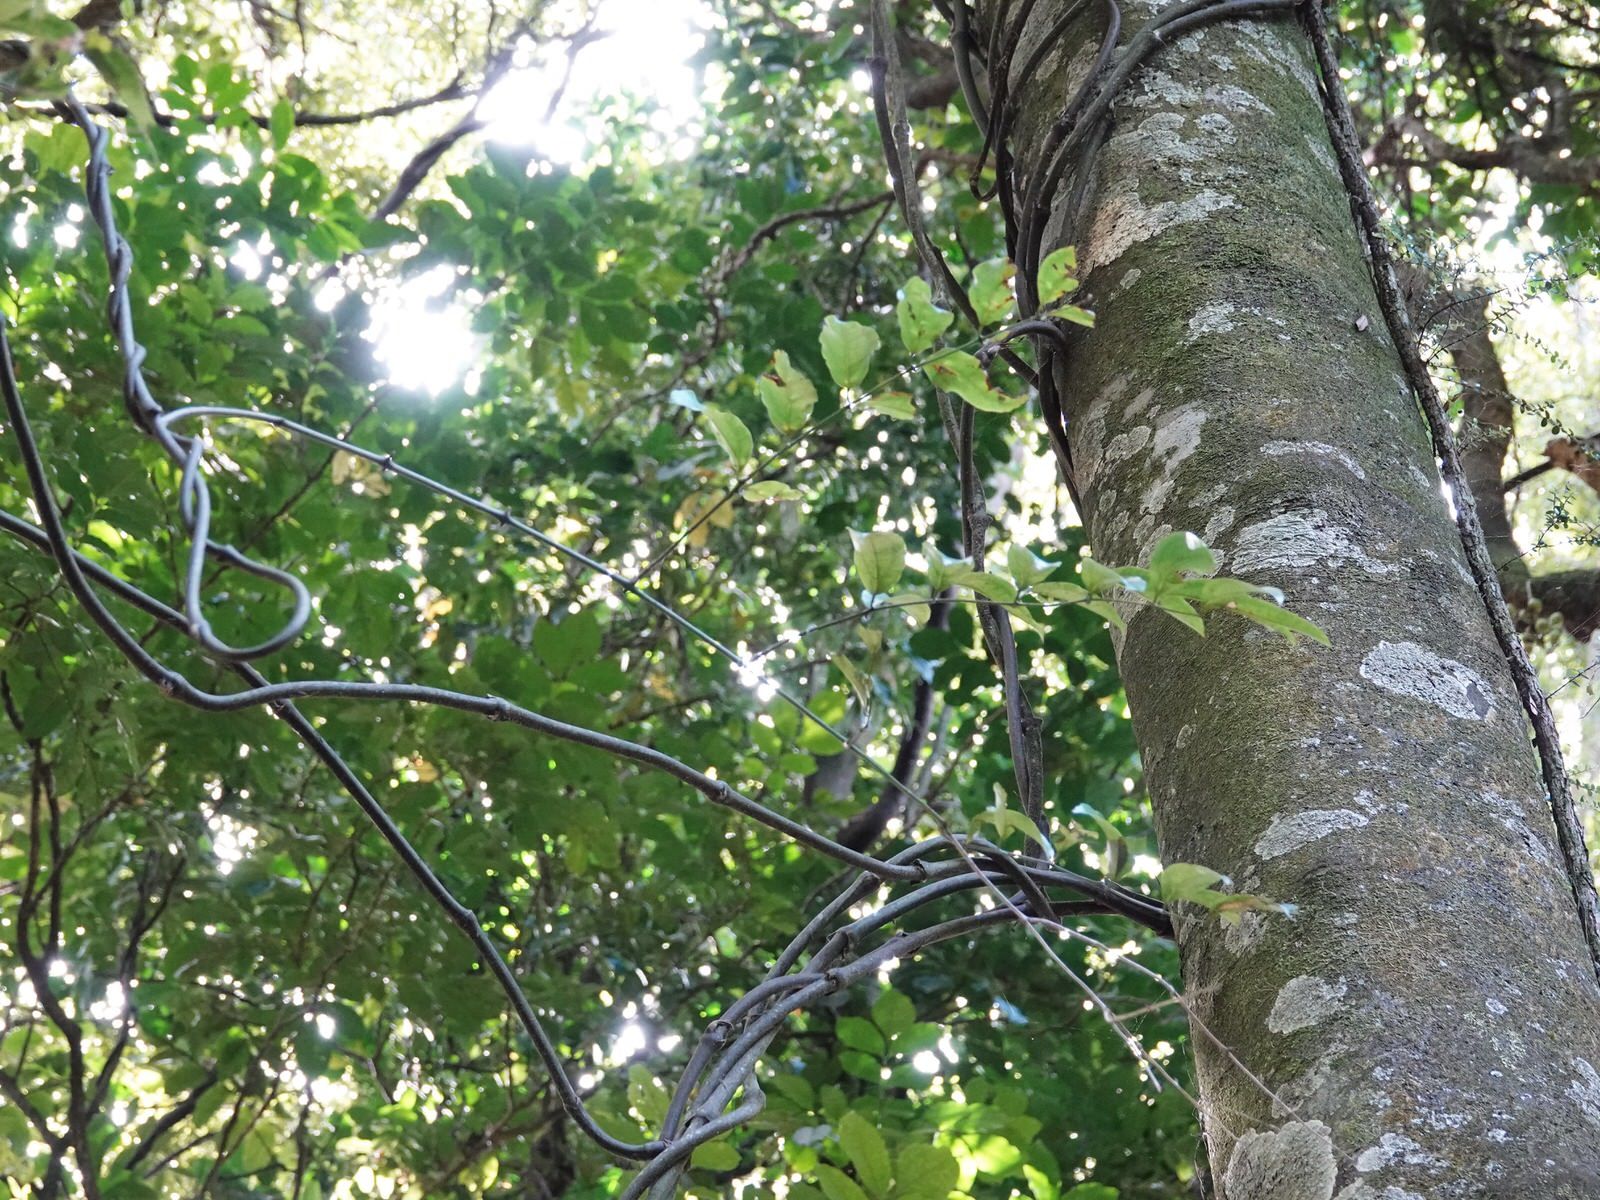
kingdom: Plantae
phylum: Tracheophyta
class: Liliopsida
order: Liliales
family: Ripogonaceae
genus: Ripogonum
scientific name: Ripogonum scandens
